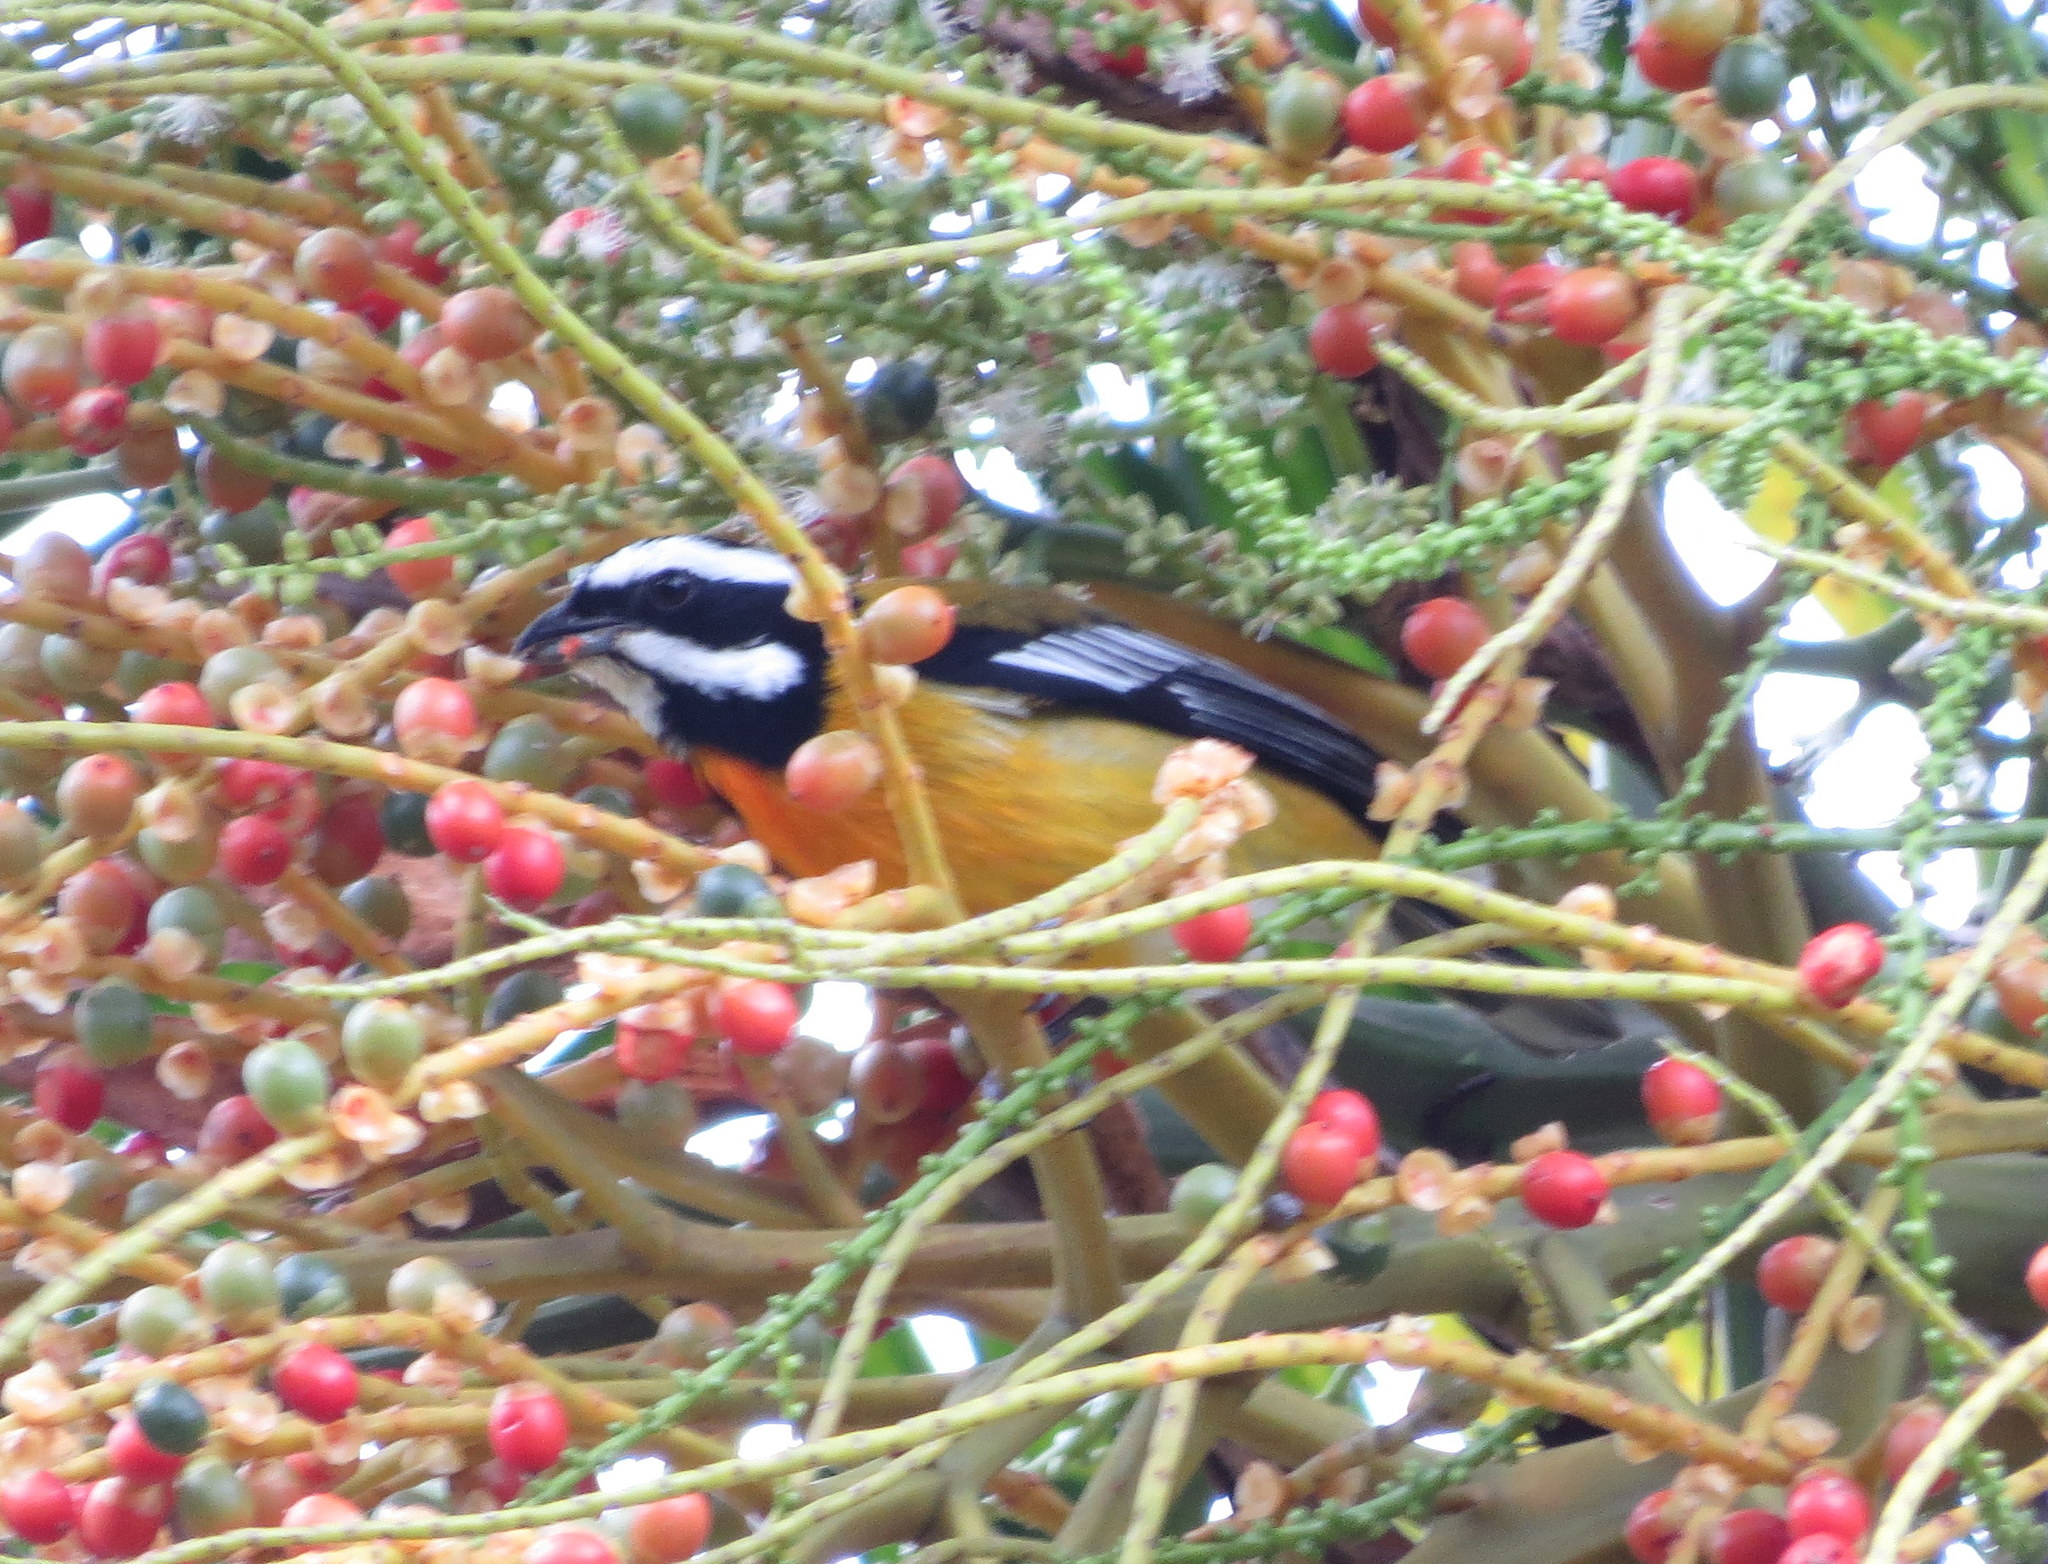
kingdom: Animalia
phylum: Chordata
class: Aves
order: Passeriformes
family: Spindalidae
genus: Spindalis
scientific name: Spindalis nigricephala
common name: Jamaican spindalis
